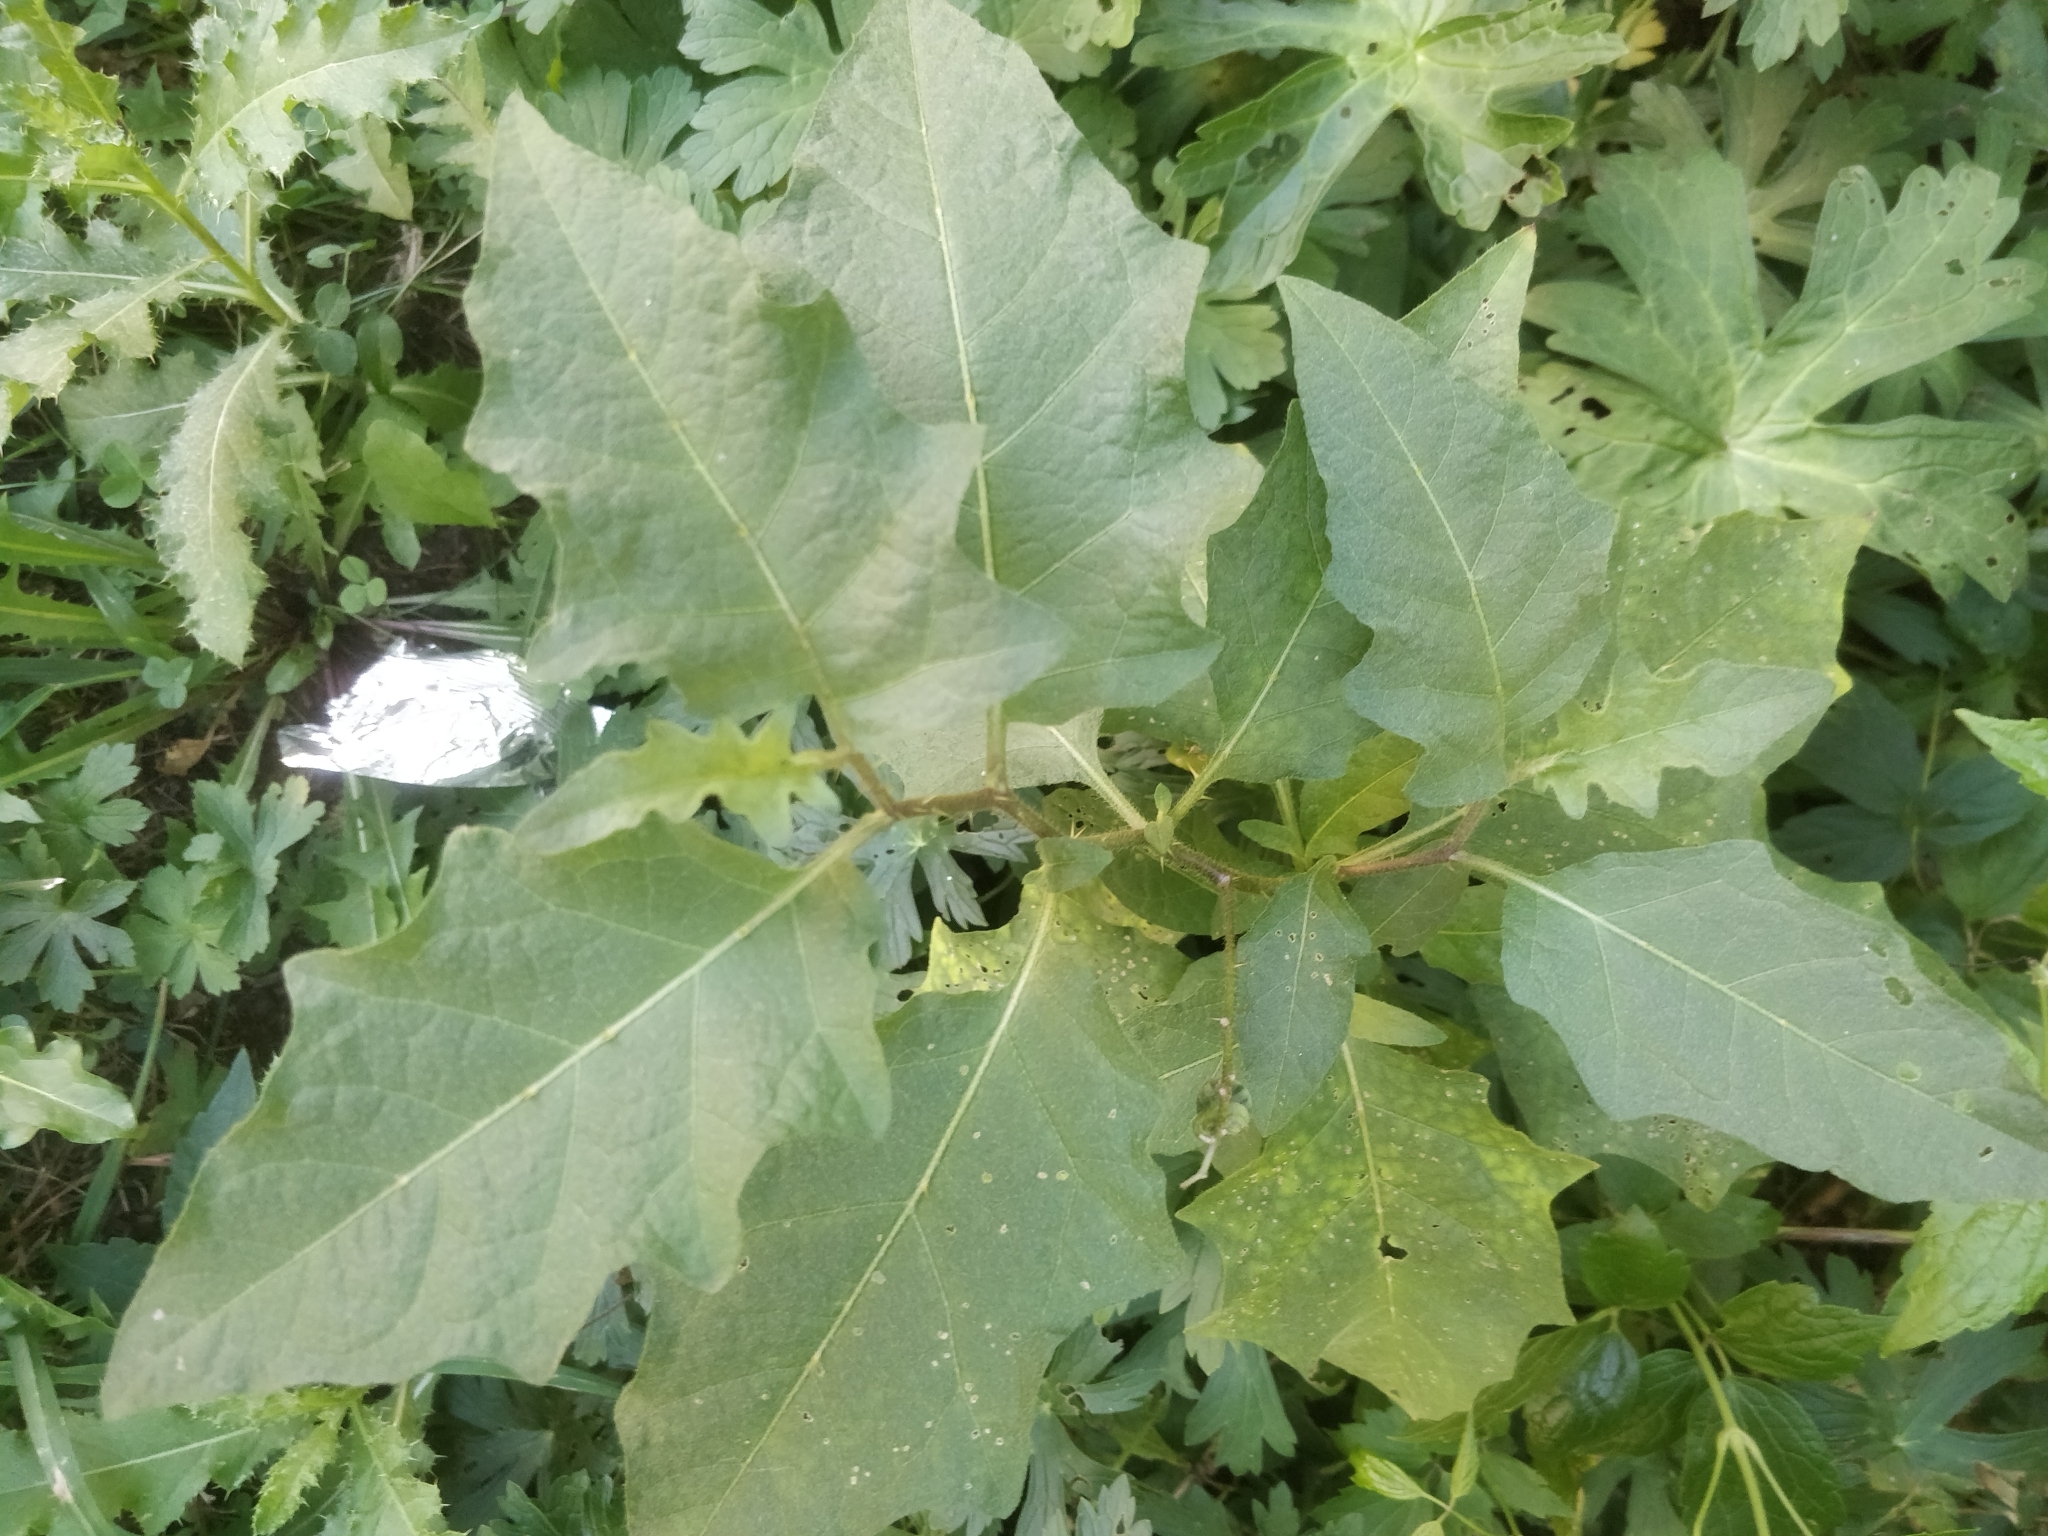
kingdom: Plantae
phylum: Tracheophyta
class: Magnoliopsida
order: Solanales
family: Solanaceae
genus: Solanum
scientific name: Solanum carolinense
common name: Horse-nettle
